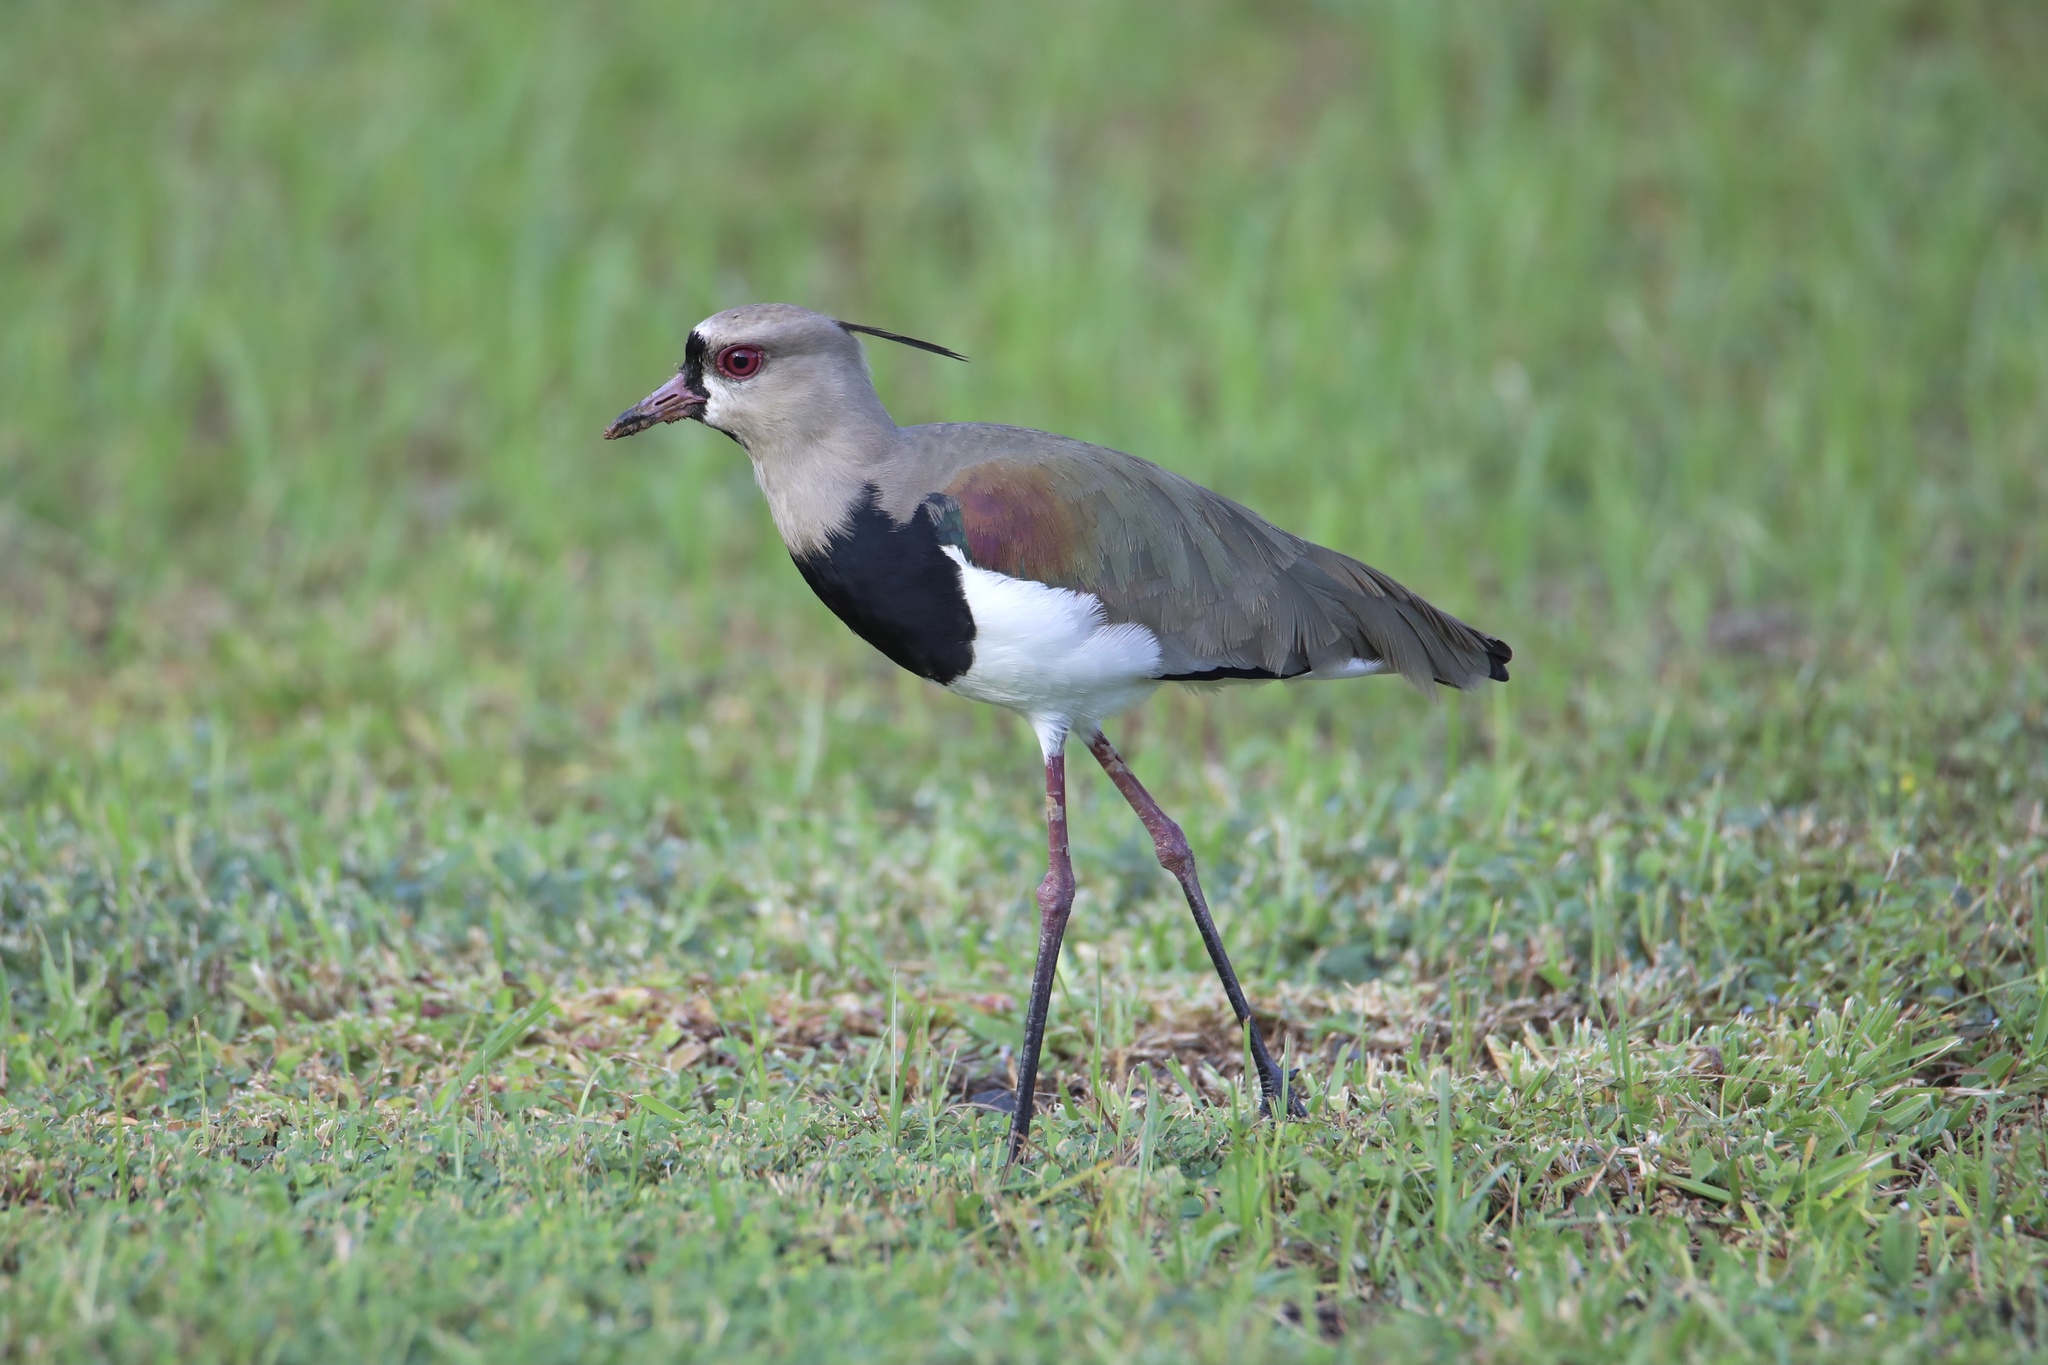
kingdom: Animalia
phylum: Chordata
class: Aves
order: Charadriiformes
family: Charadriidae
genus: Vanellus
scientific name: Vanellus chilensis
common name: Southern lapwing
